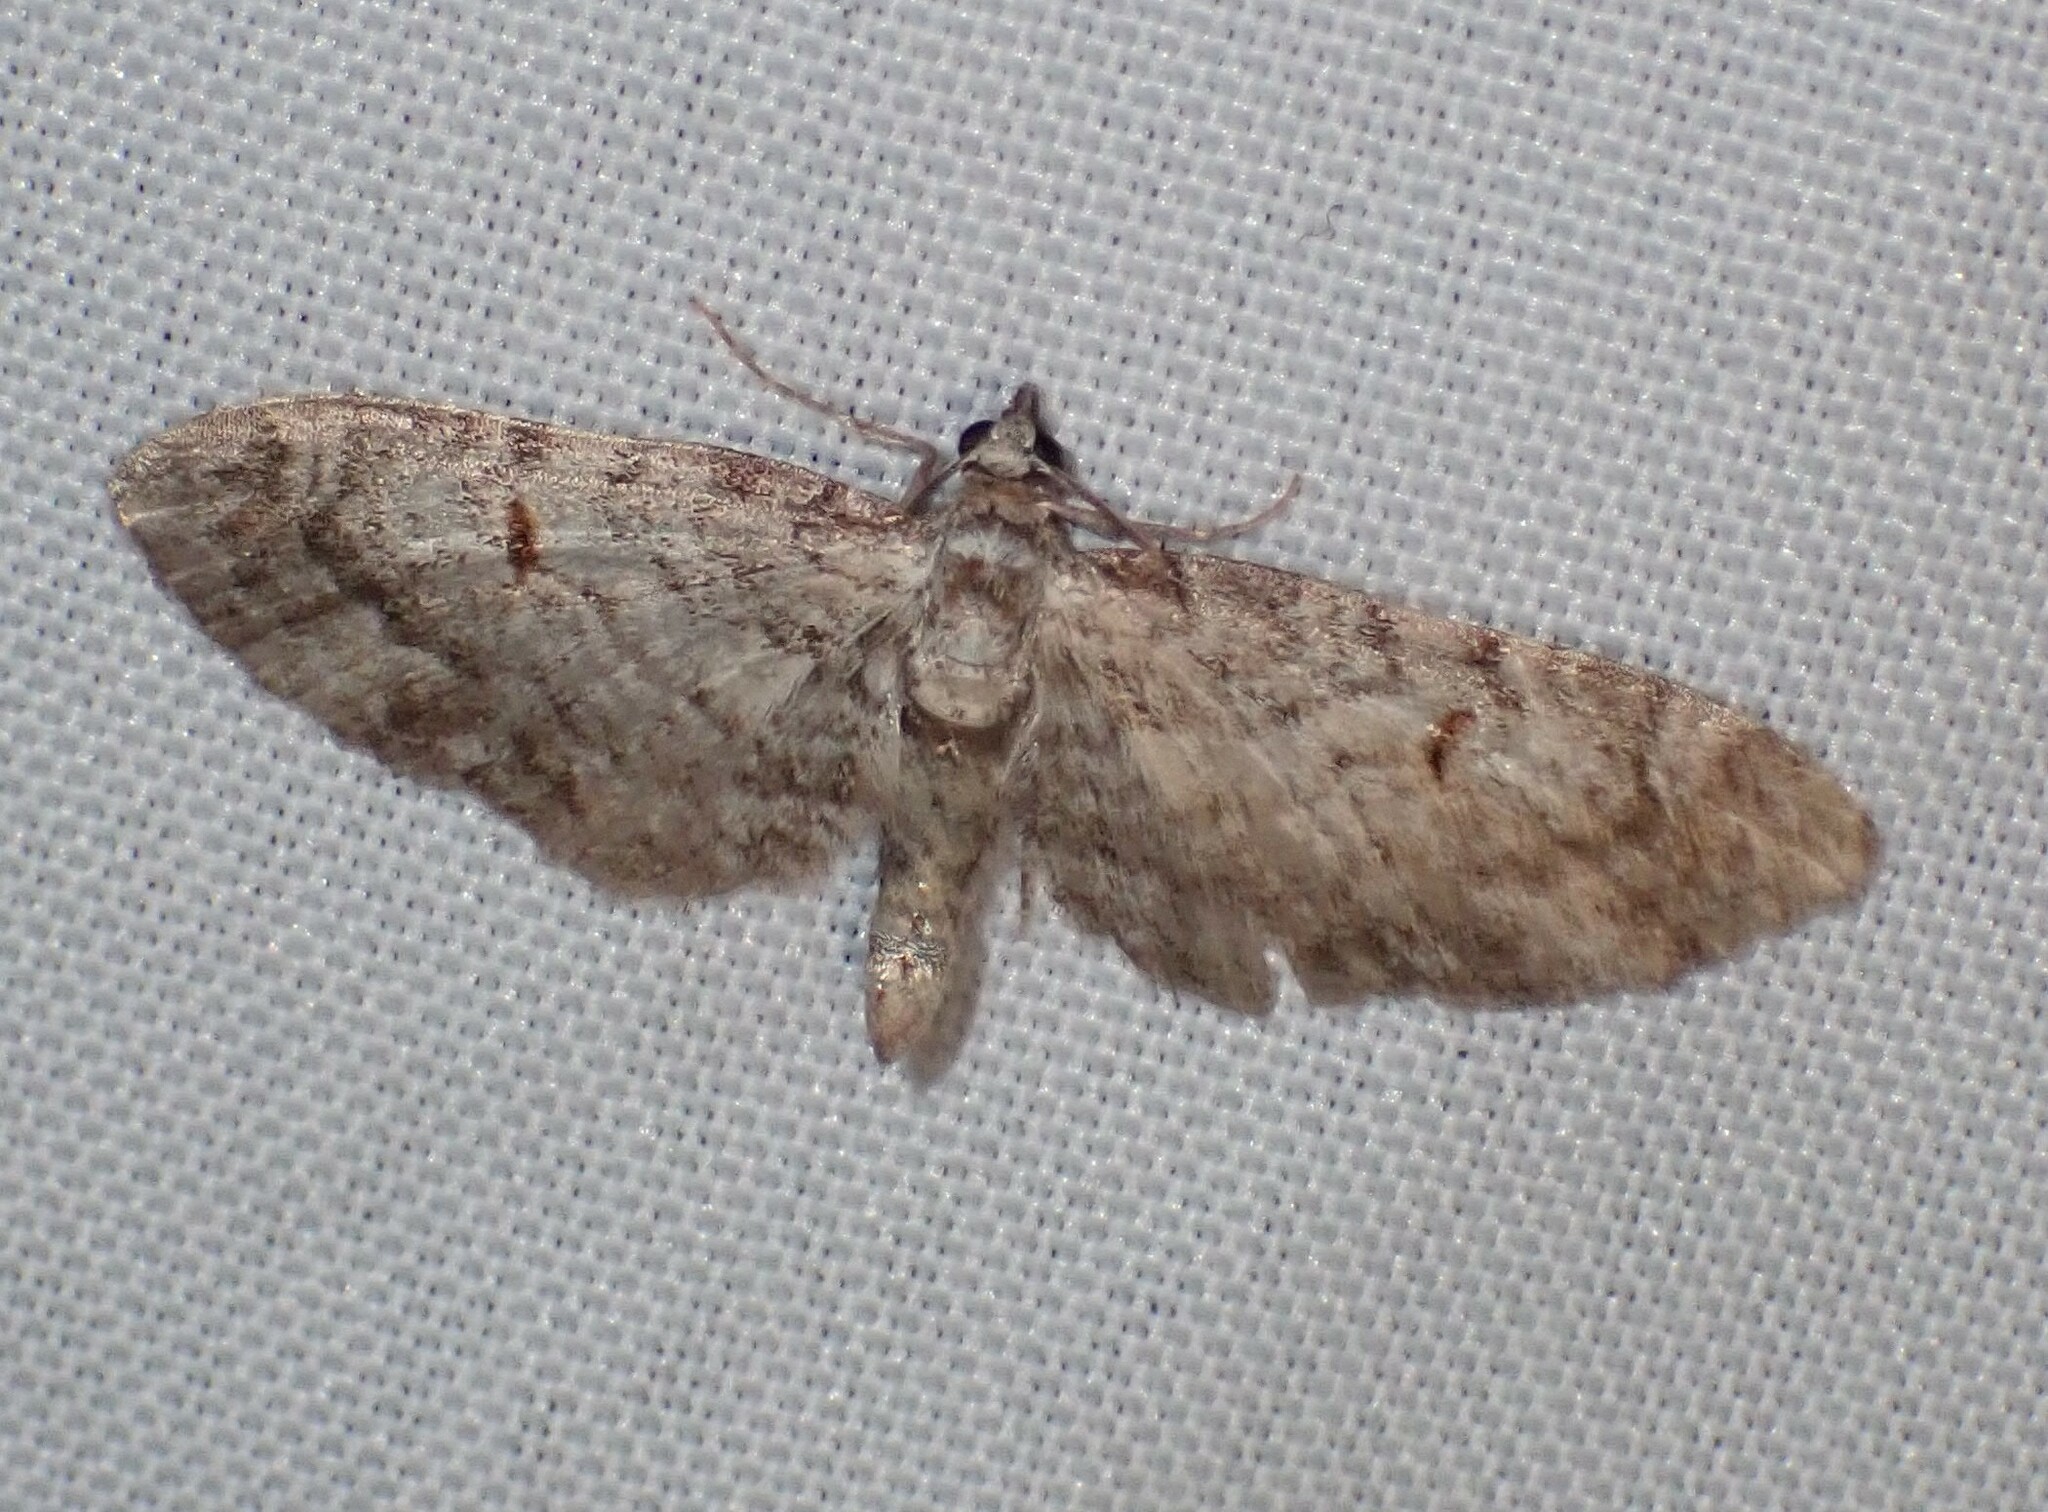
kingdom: Animalia
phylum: Arthropoda
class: Insecta
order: Lepidoptera
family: Geometridae
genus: Eupithecia
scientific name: Eupithecia graefii
